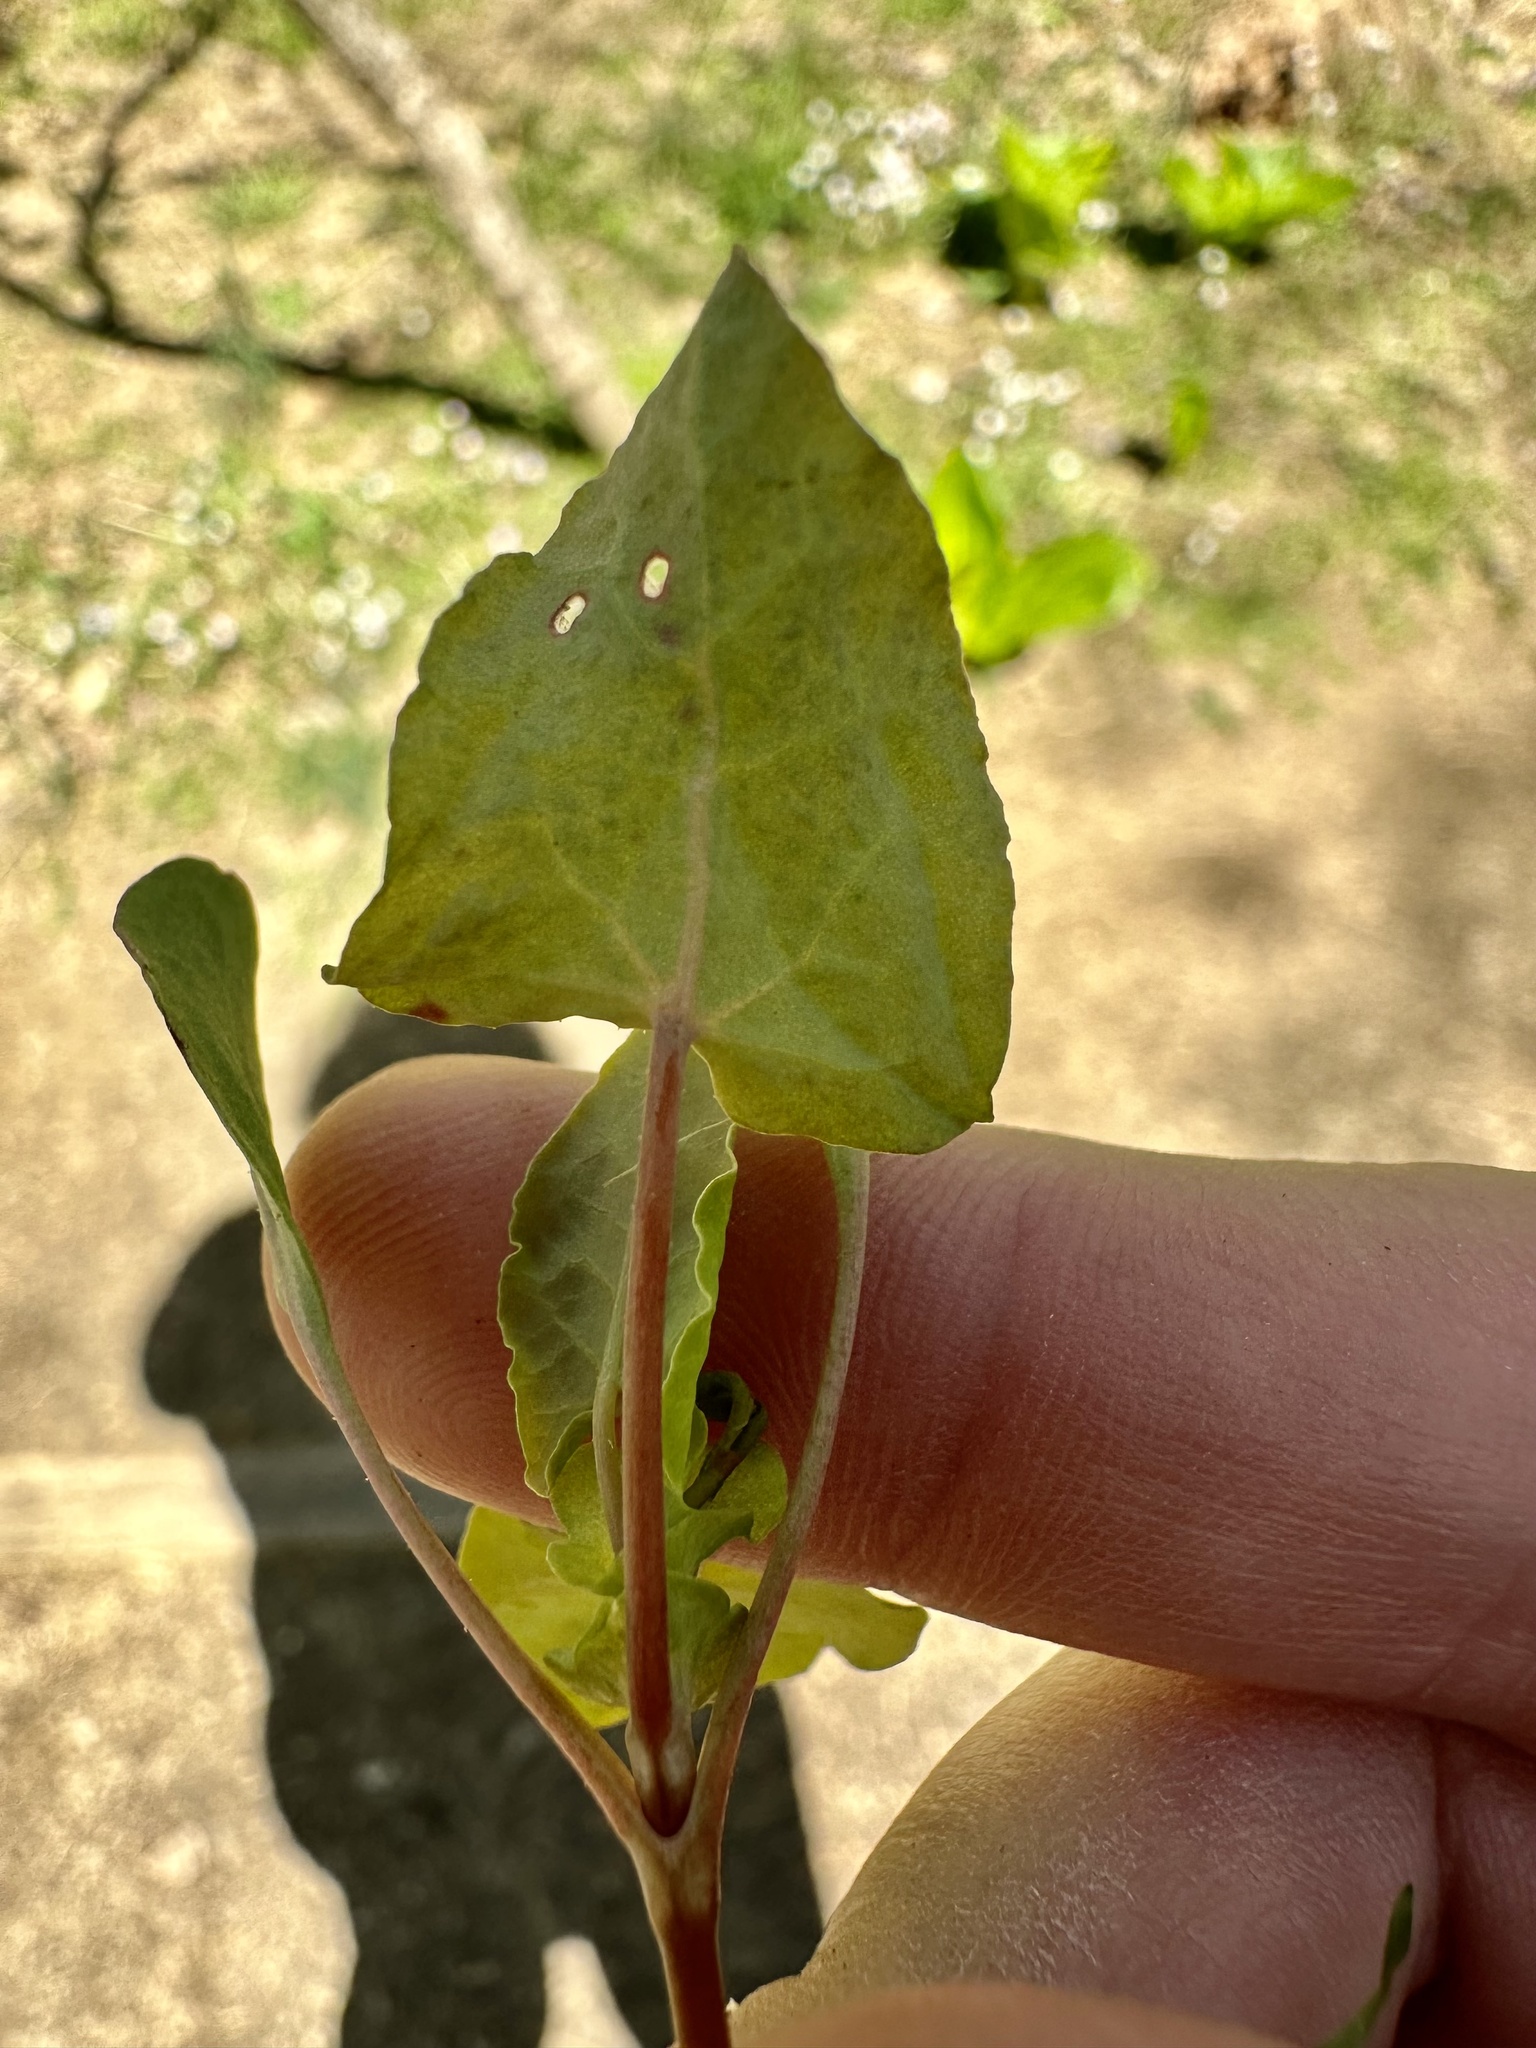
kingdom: Plantae
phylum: Tracheophyta
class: Magnoliopsida
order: Caryophyllales
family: Polygonaceae
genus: Persicaria
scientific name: Persicaria perfoliata
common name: Asiatic tearthumb
